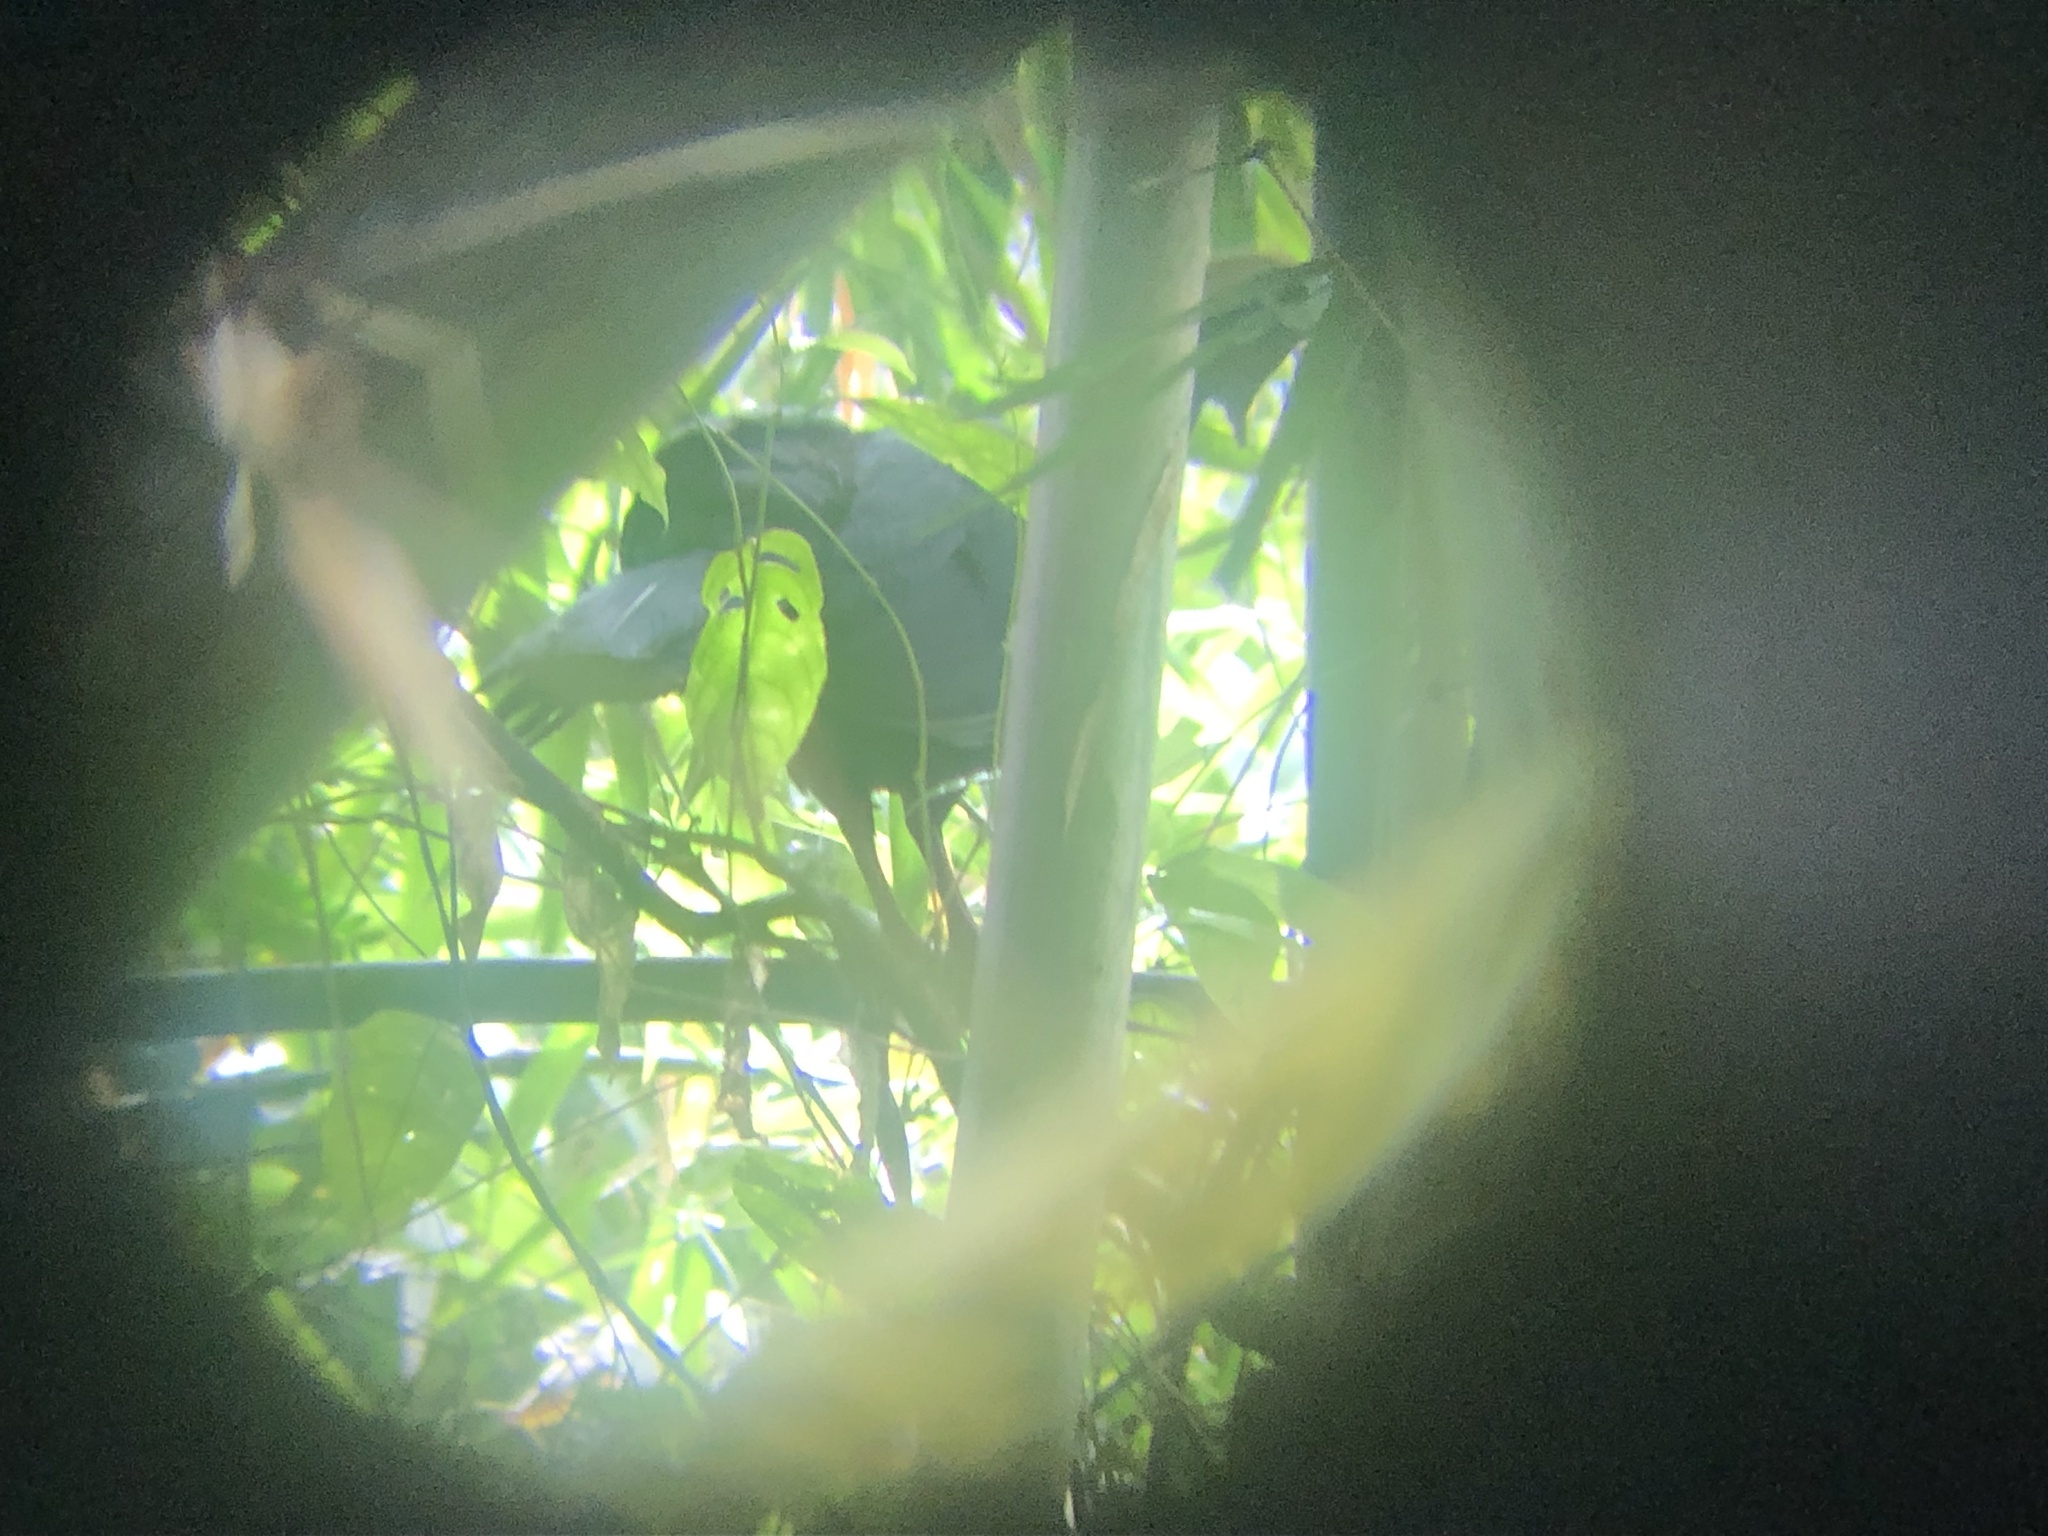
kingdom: Animalia
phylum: Chordata
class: Aves
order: Galliformes
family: Cracidae
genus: Pipile
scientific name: Pipile cumanensis
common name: Blue-throated piping-guan
